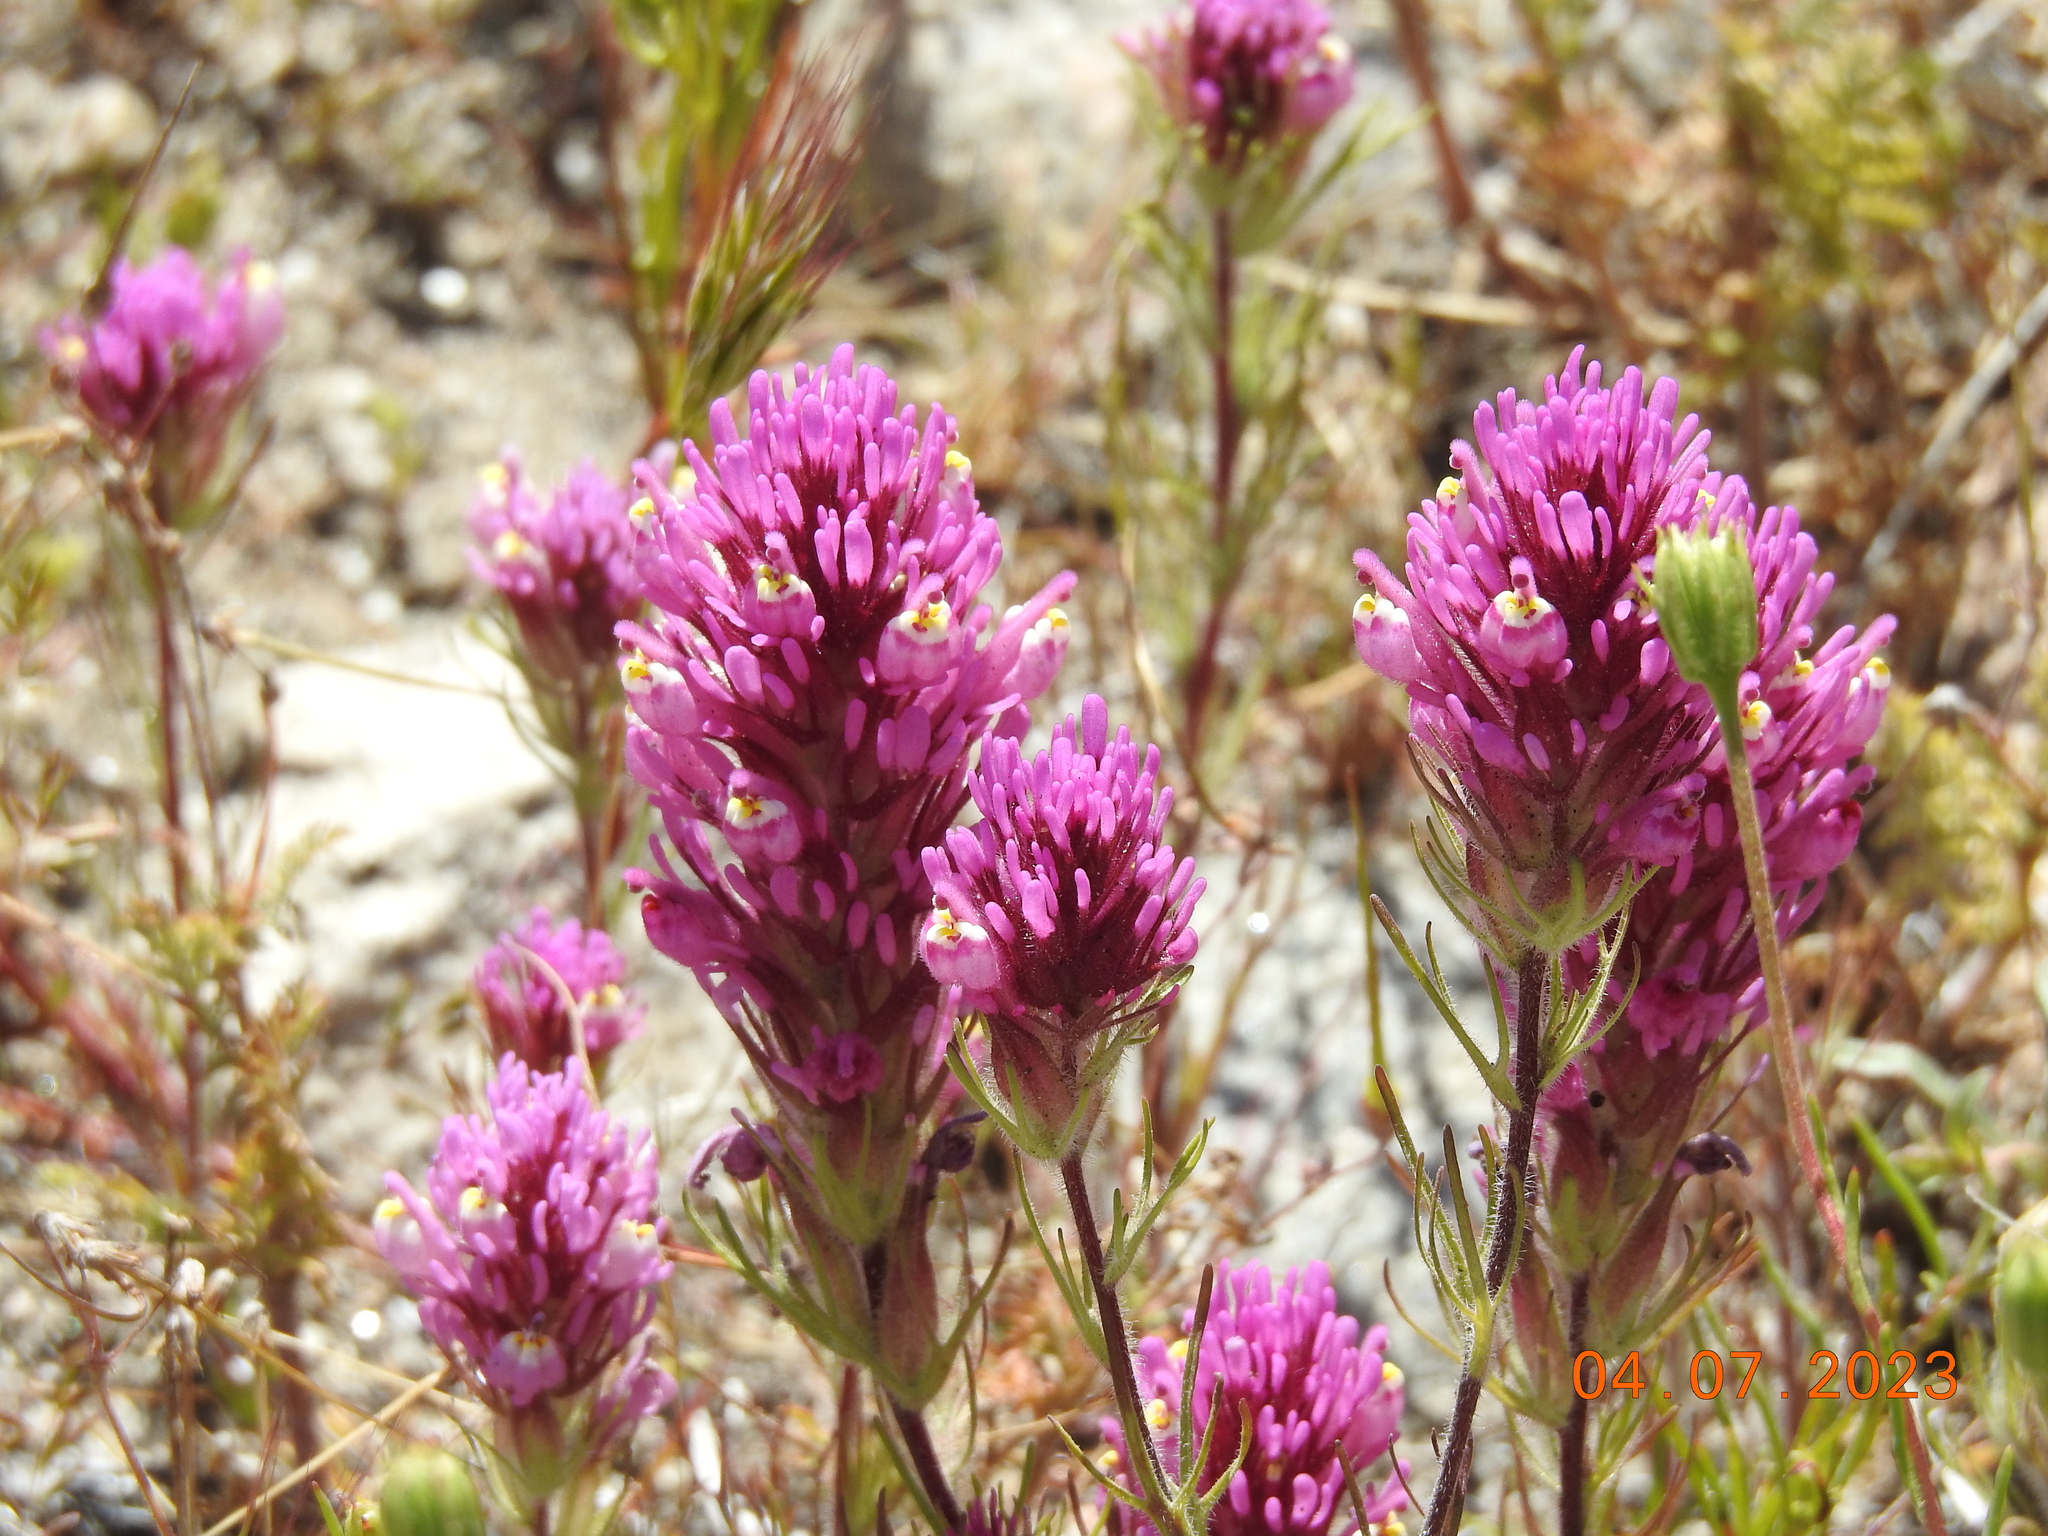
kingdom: Plantae
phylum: Tracheophyta
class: Magnoliopsida
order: Lamiales
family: Orobanchaceae
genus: Castilleja
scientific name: Castilleja exserta
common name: Purple owl-clover
